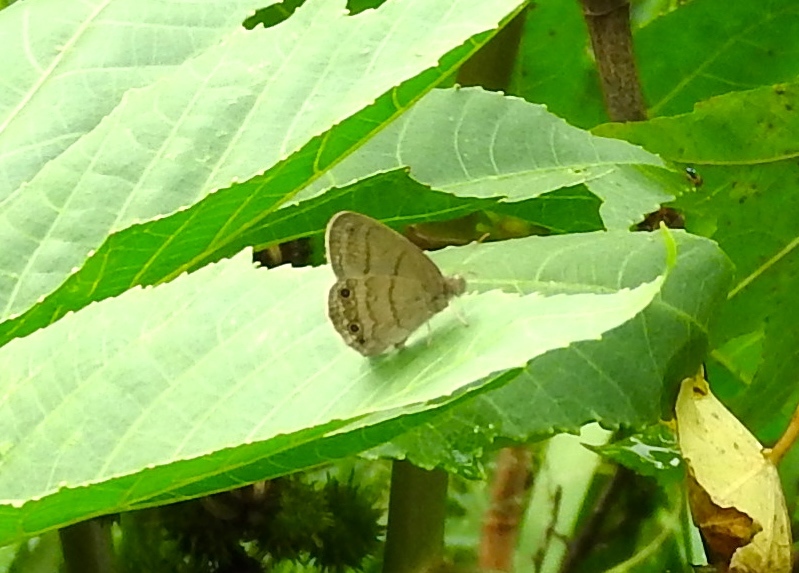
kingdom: Animalia
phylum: Arthropoda
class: Insecta
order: Lepidoptera
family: Nymphalidae
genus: Hermeuptychia
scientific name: Hermeuptychia
